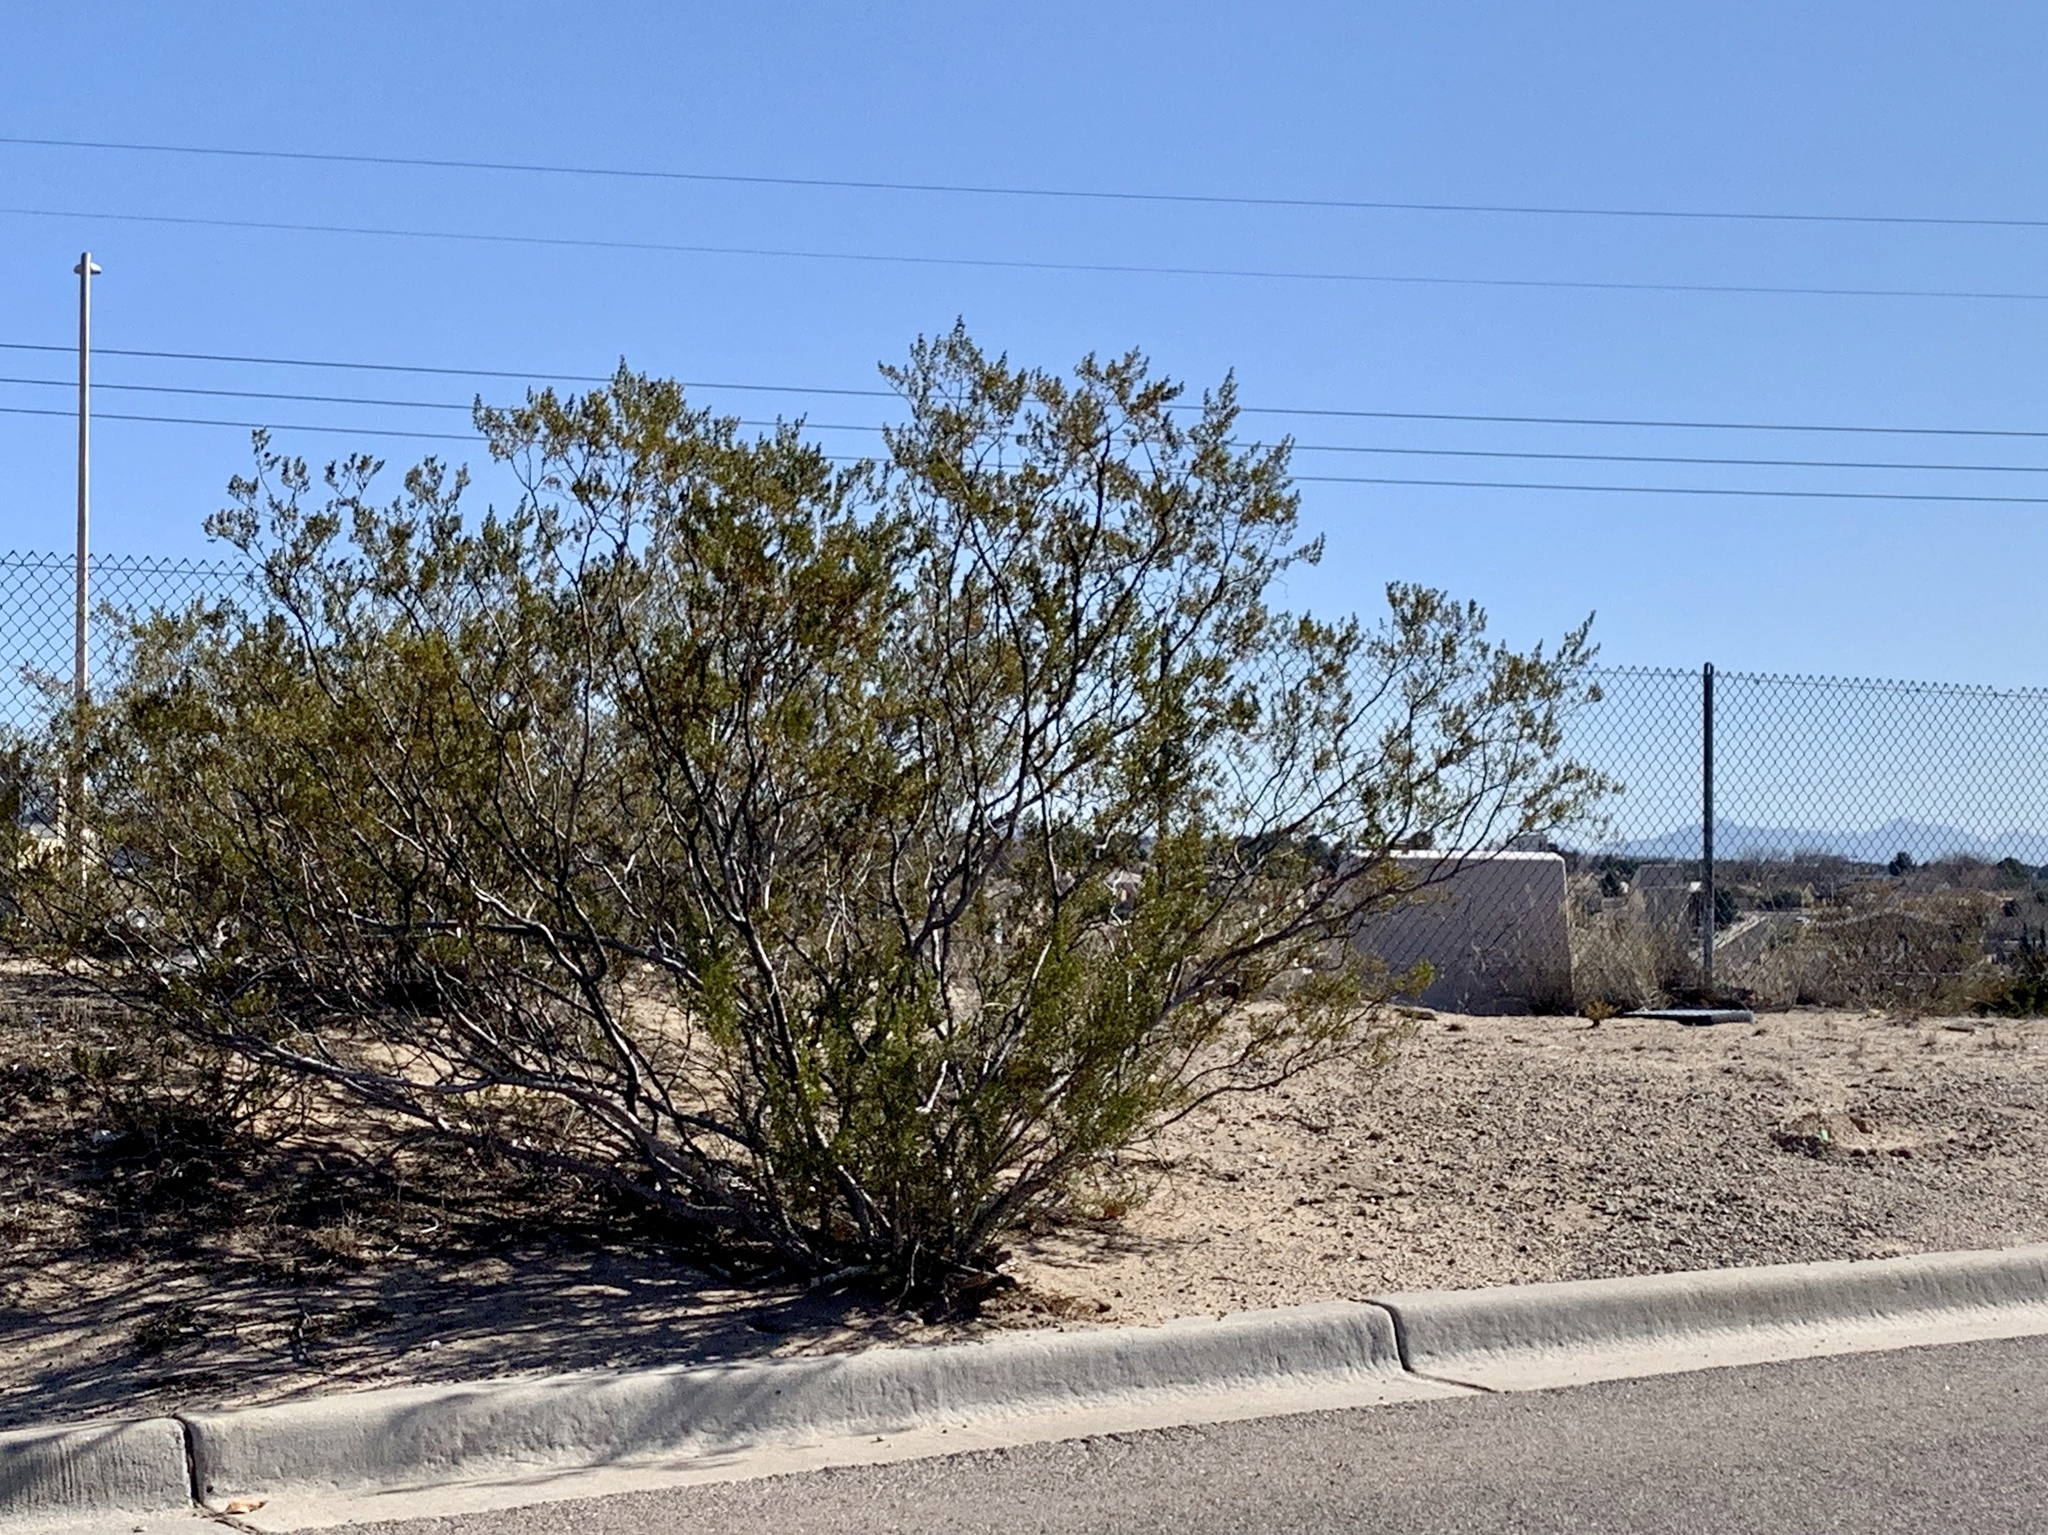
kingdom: Plantae
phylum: Tracheophyta
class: Magnoliopsida
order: Zygophyllales
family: Zygophyllaceae
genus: Larrea
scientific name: Larrea tridentata
